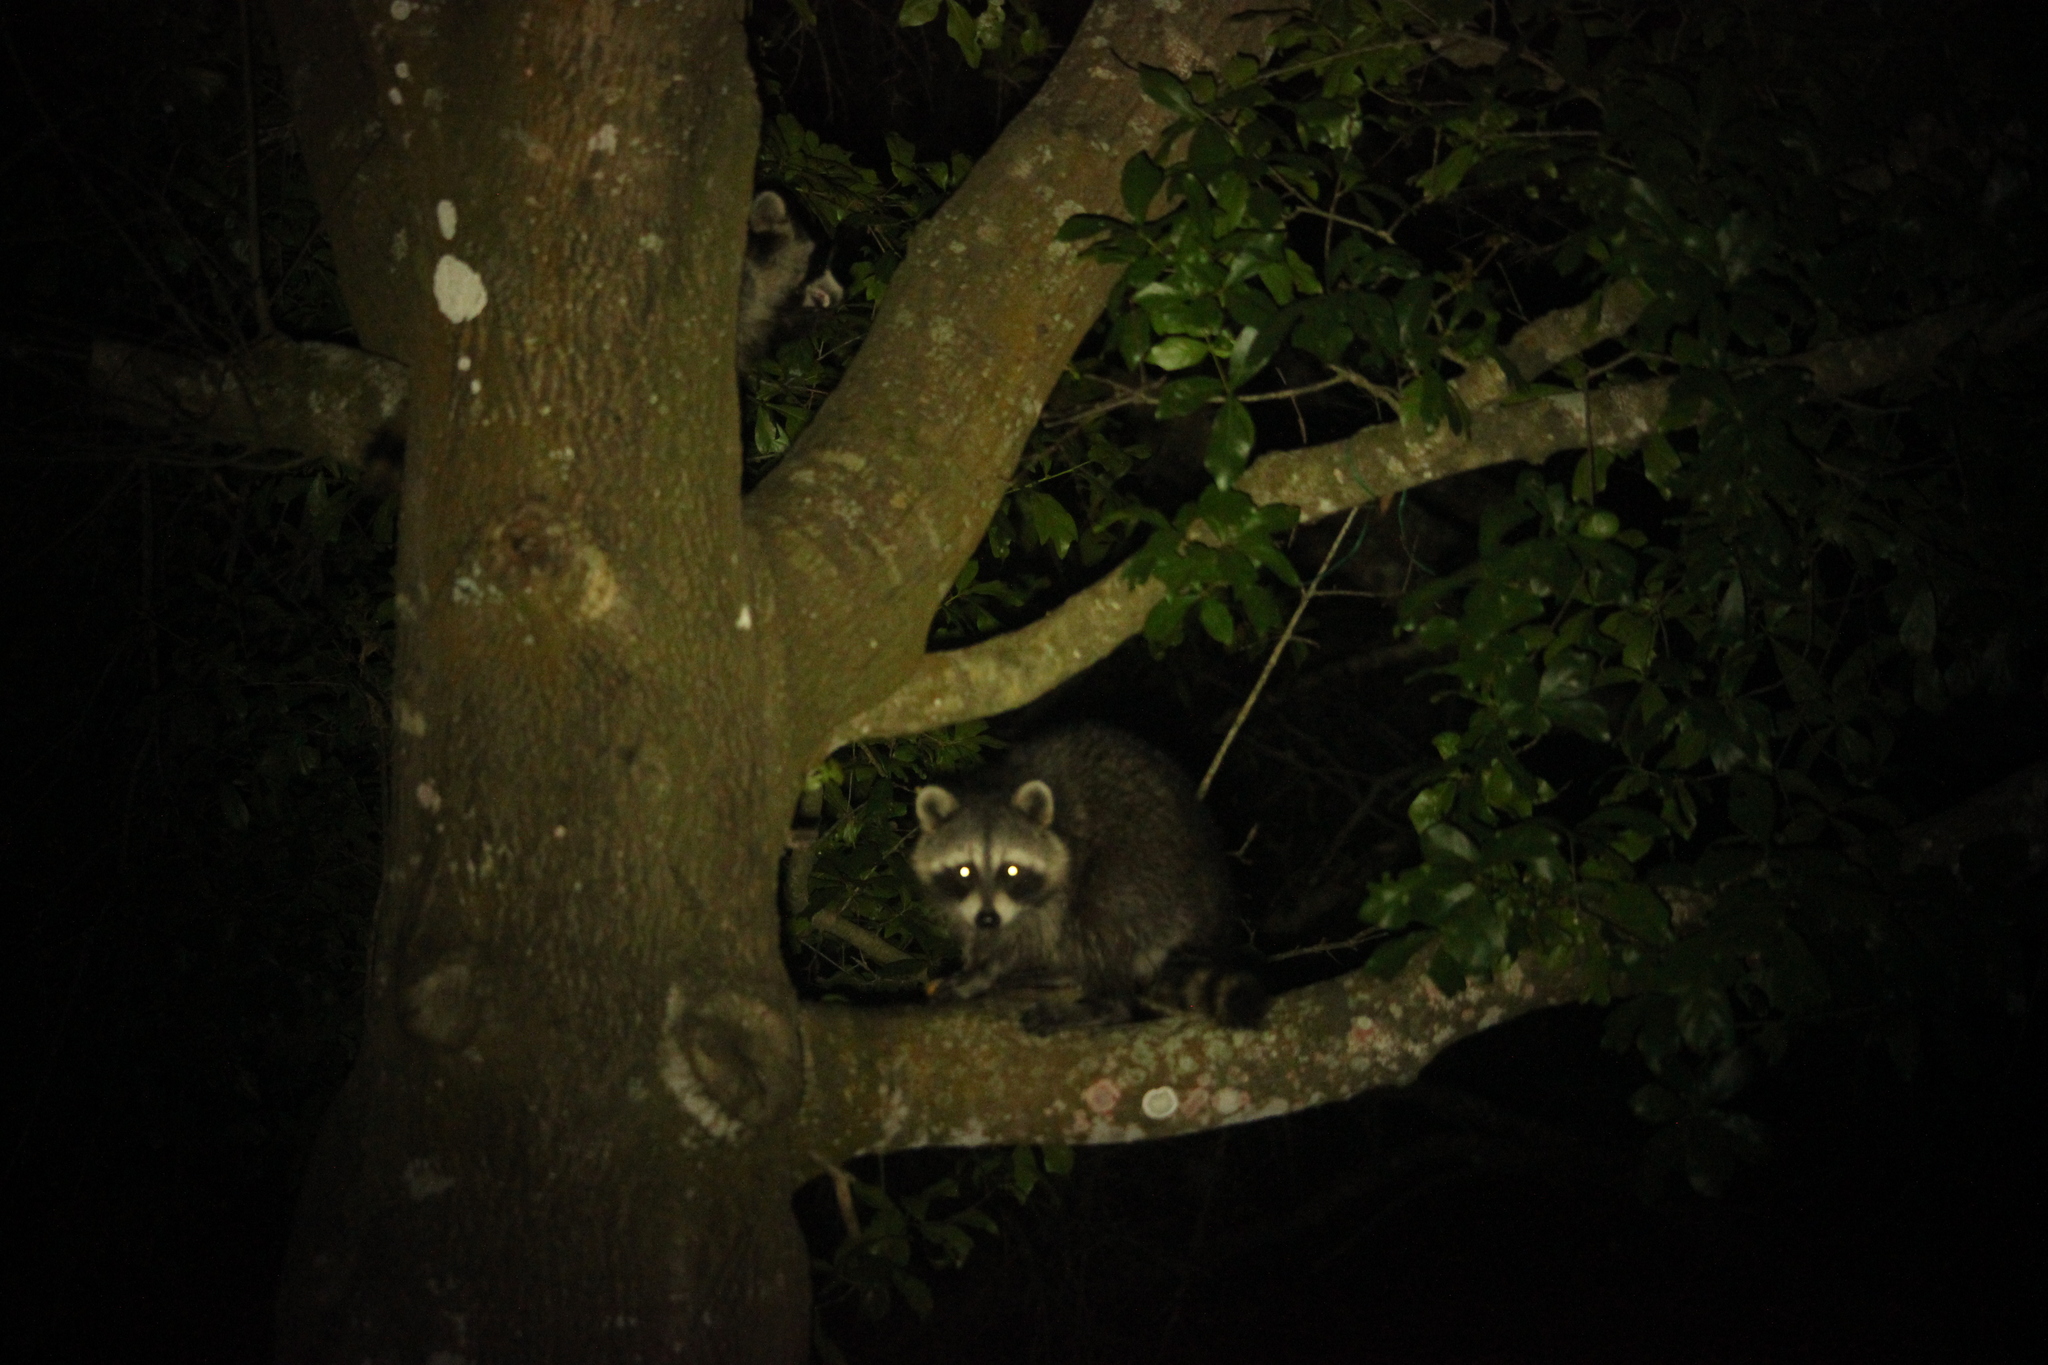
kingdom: Animalia
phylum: Chordata
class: Mammalia
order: Carnivora
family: Procyonidae
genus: Procyon
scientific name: Procyon lotor
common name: Raccoon
